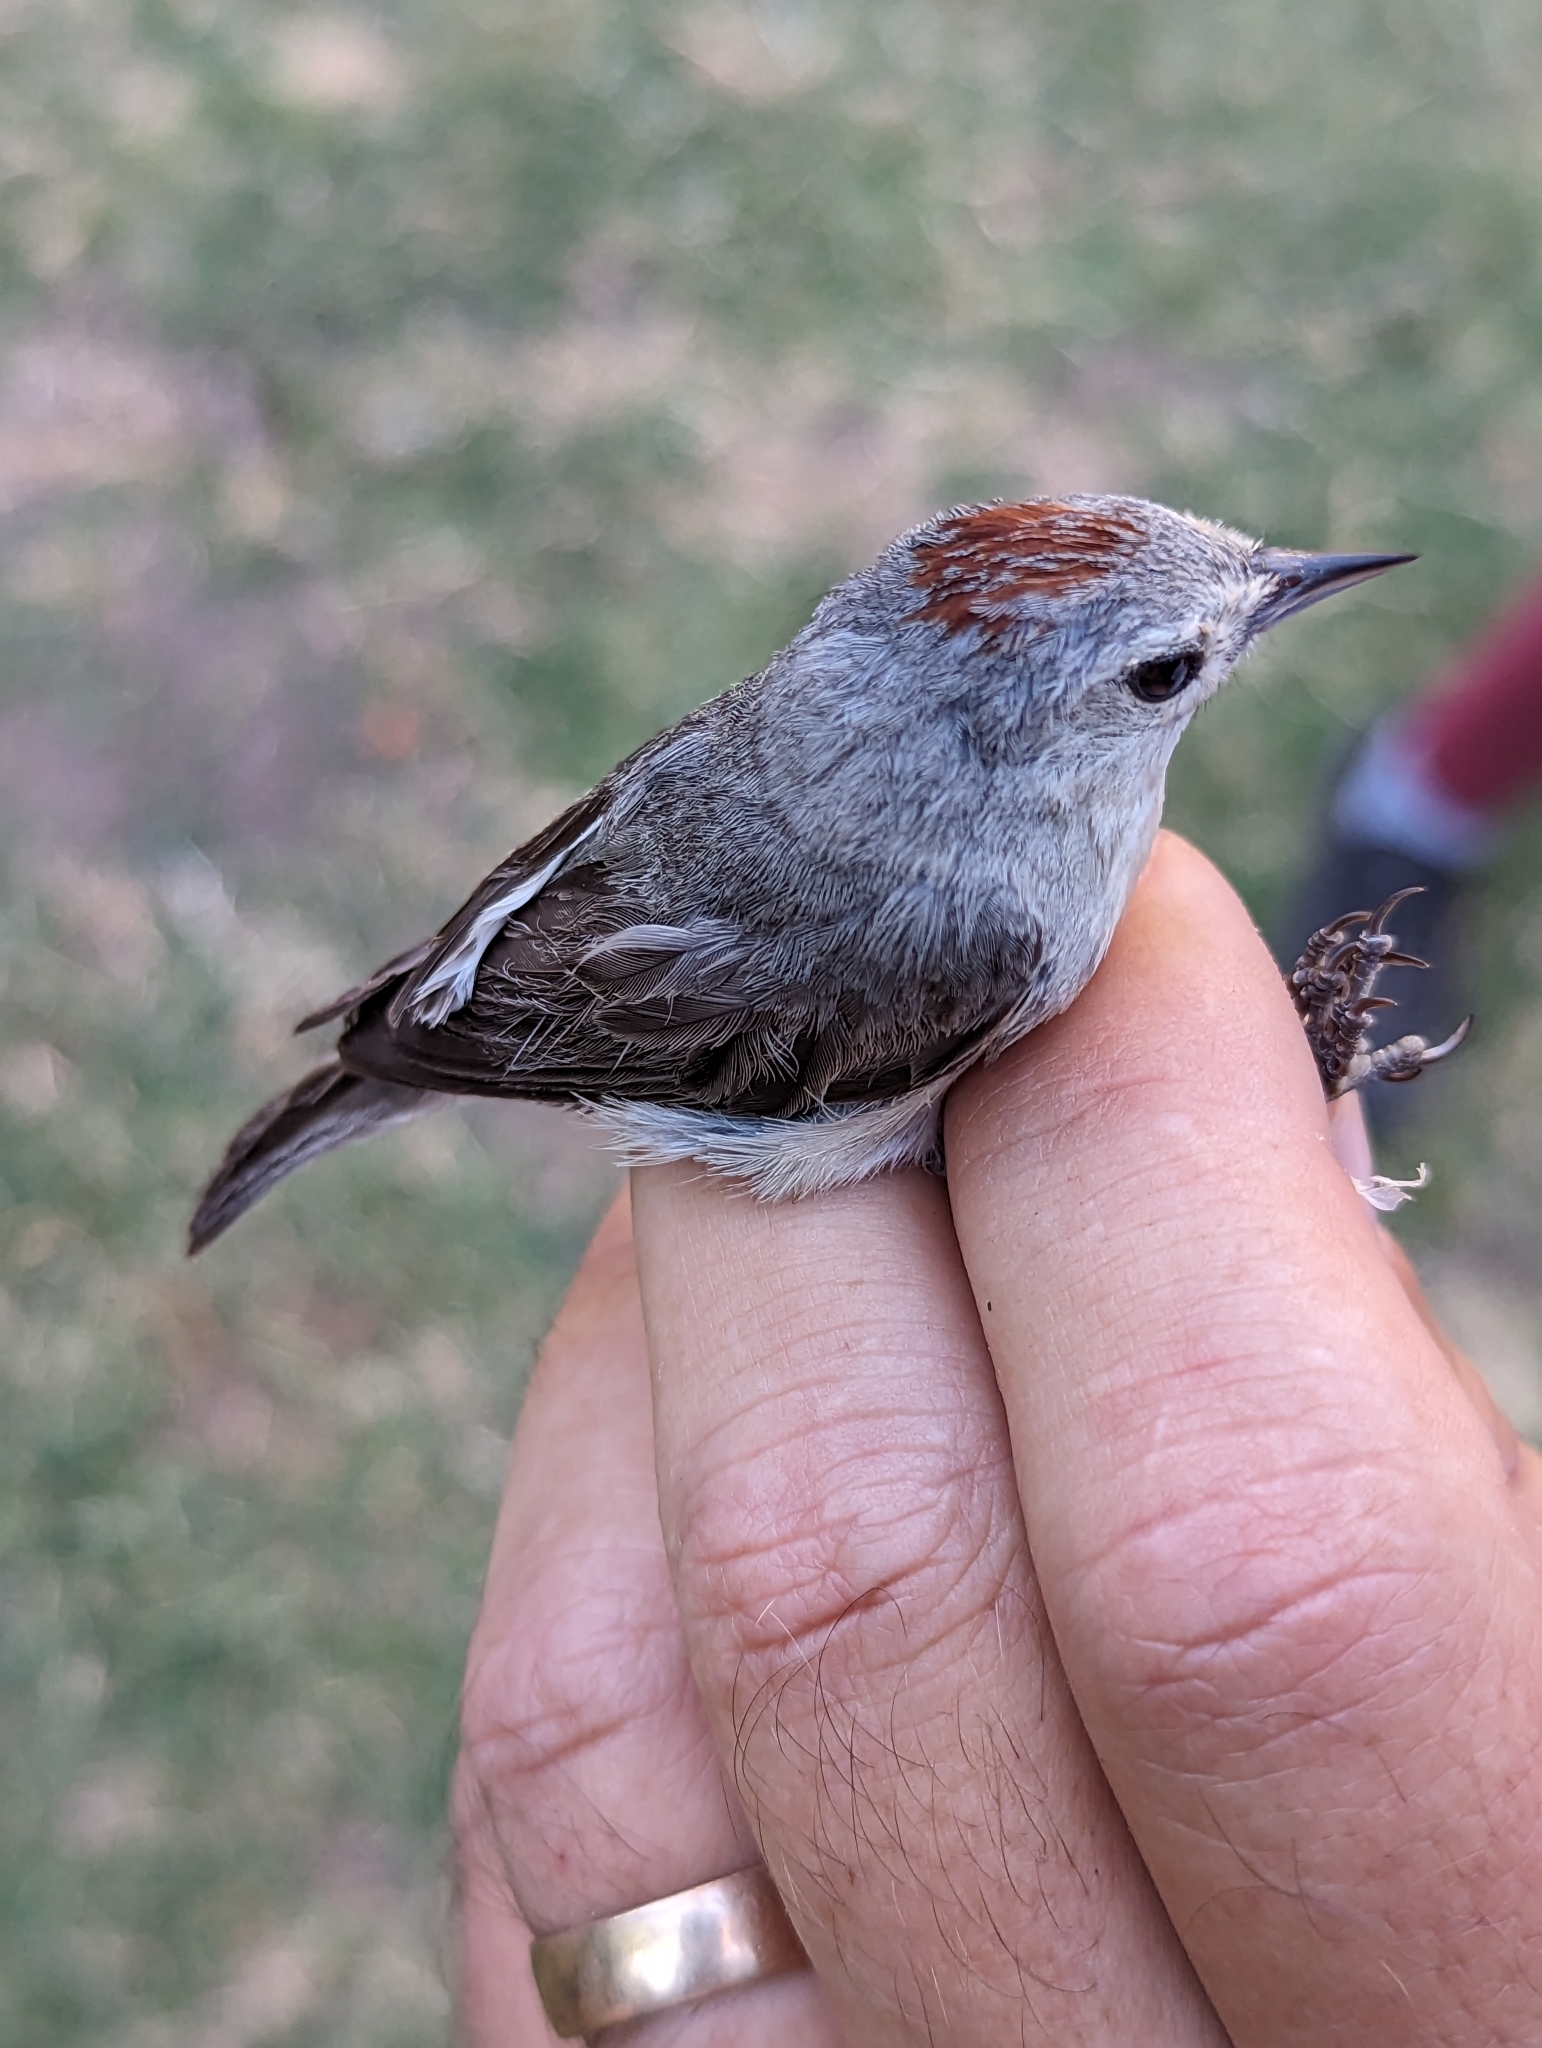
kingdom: Animalia
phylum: Chordata
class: Aves
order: Passeriformes
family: Parulidae
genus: Leiothlypis
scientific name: Leiothlypis luciae
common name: Lucy's warbler
